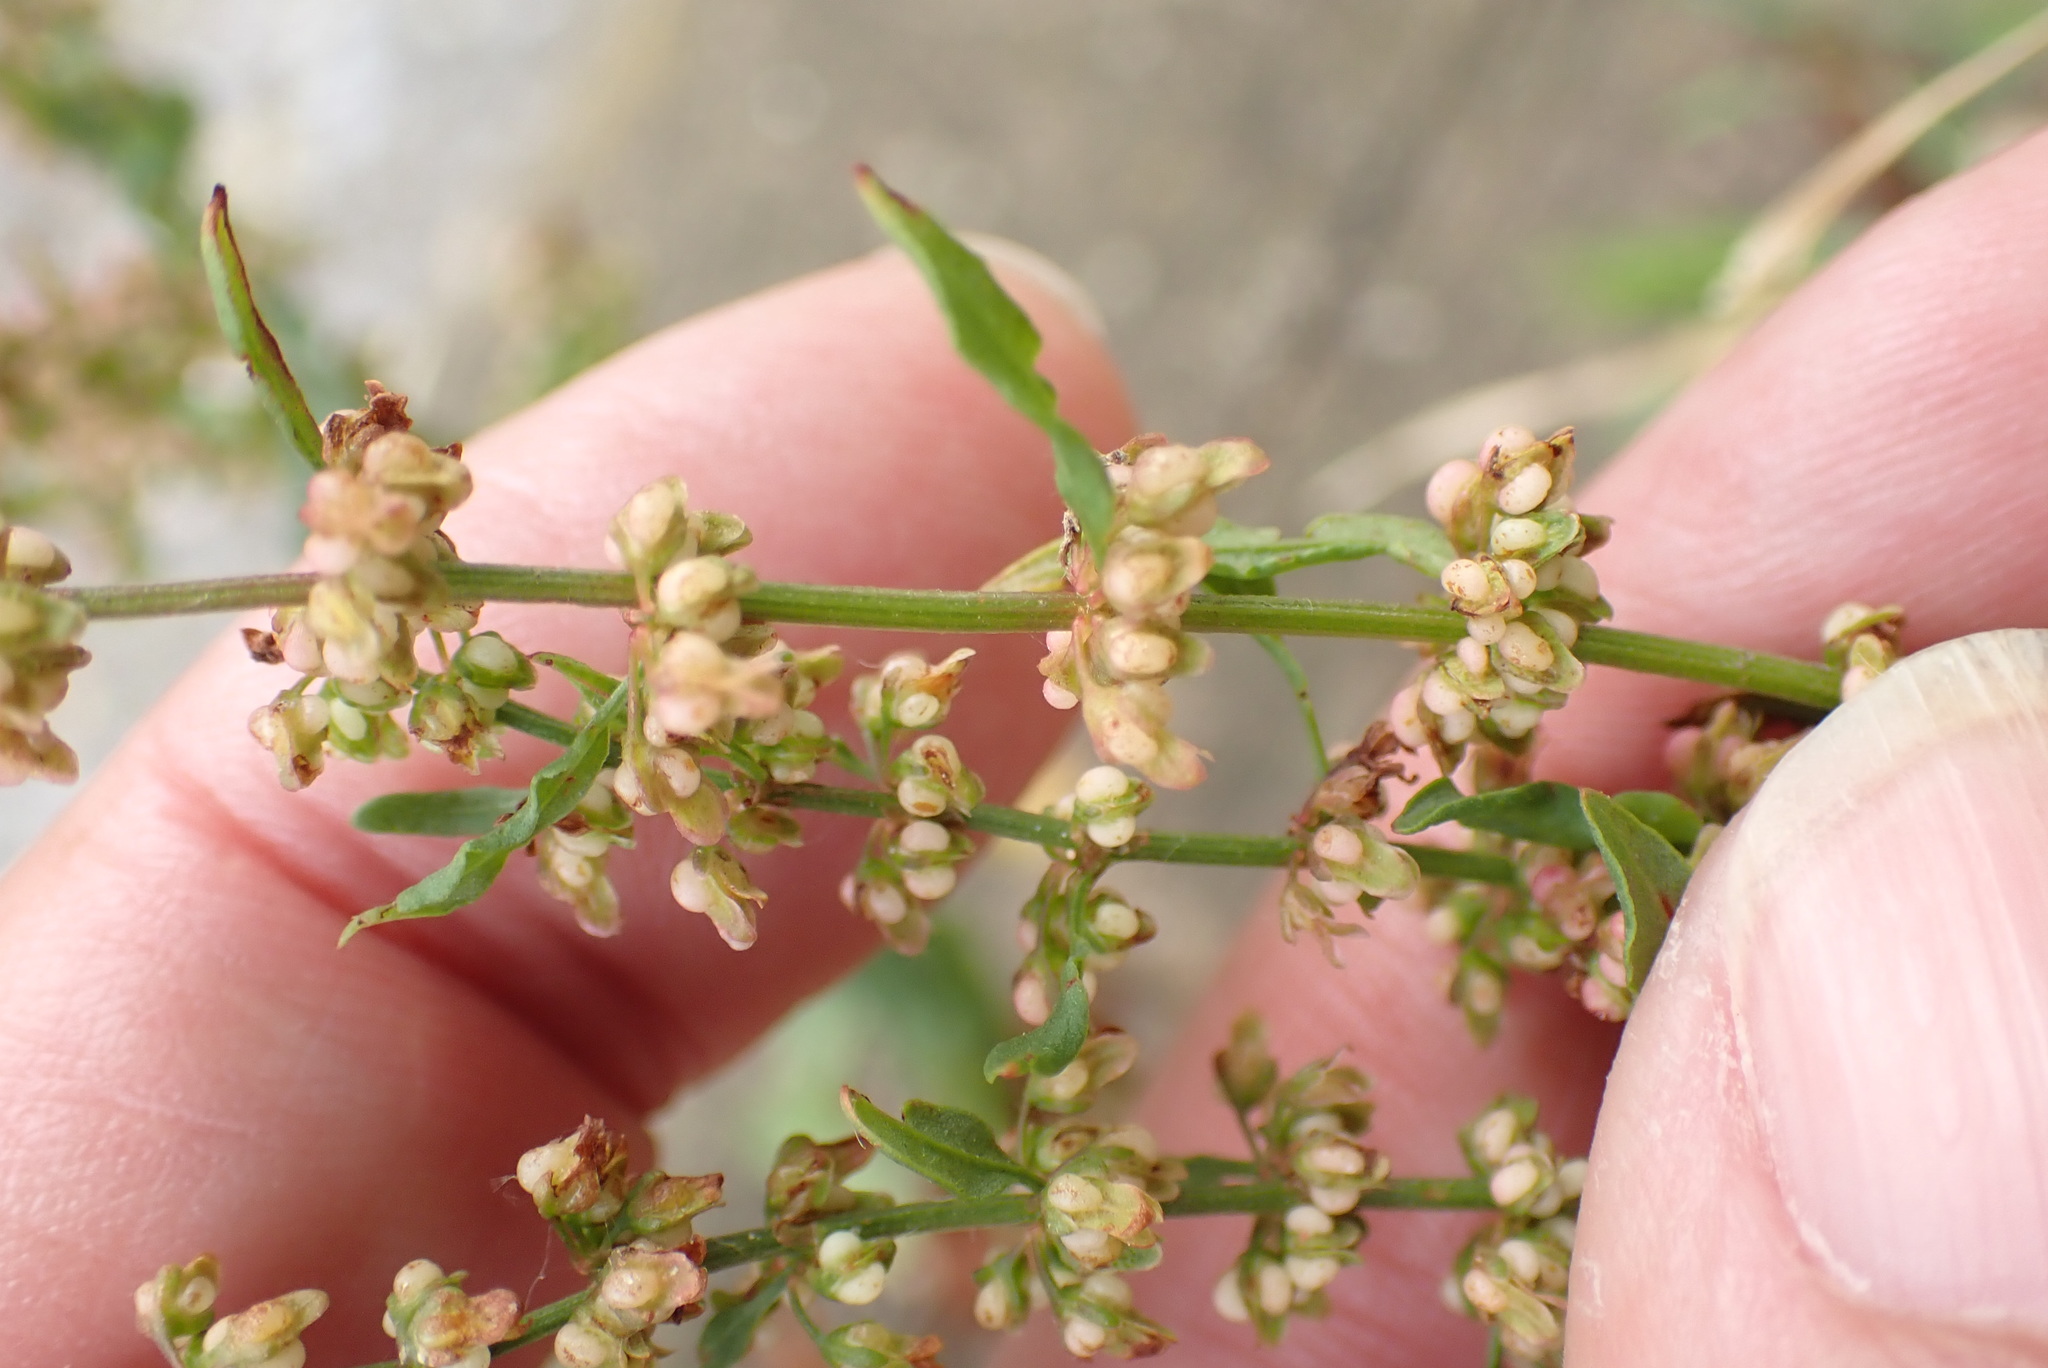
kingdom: Plantae
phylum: Tracheophyta
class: Magnoliopsida
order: Caryophyllales
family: Polygonaceae
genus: Rumex
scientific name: Rumex conglomeratus
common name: Clustered dock
